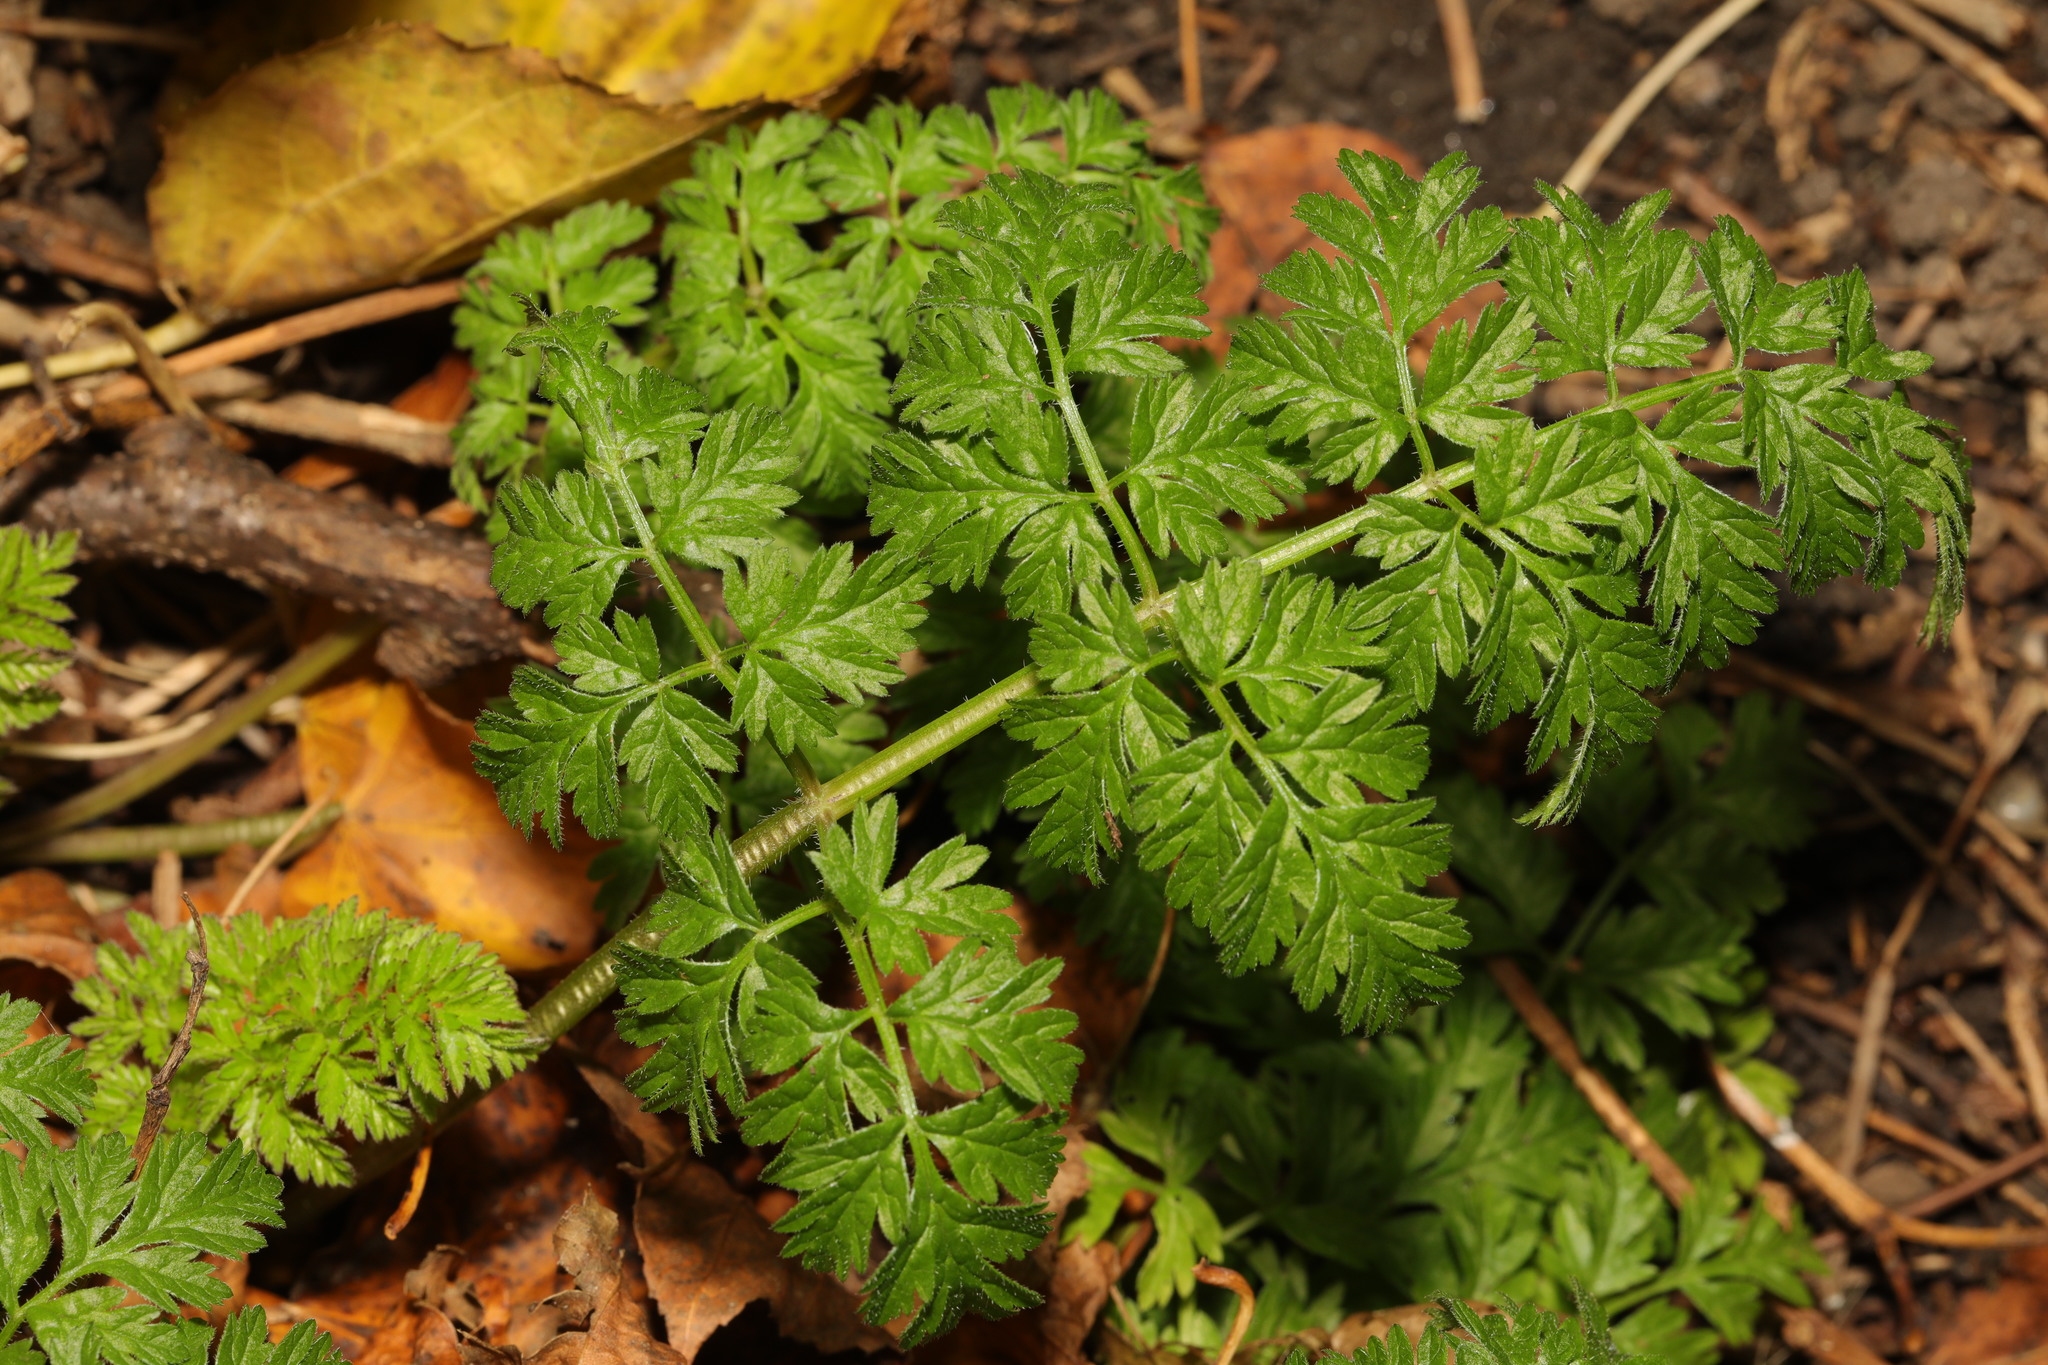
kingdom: Plantae
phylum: Tracheophyta
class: Magnoliopsida
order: Apiales
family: Apiaceae
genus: Anthriscus
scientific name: Anthriscus sylvestris
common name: Cow parsley
